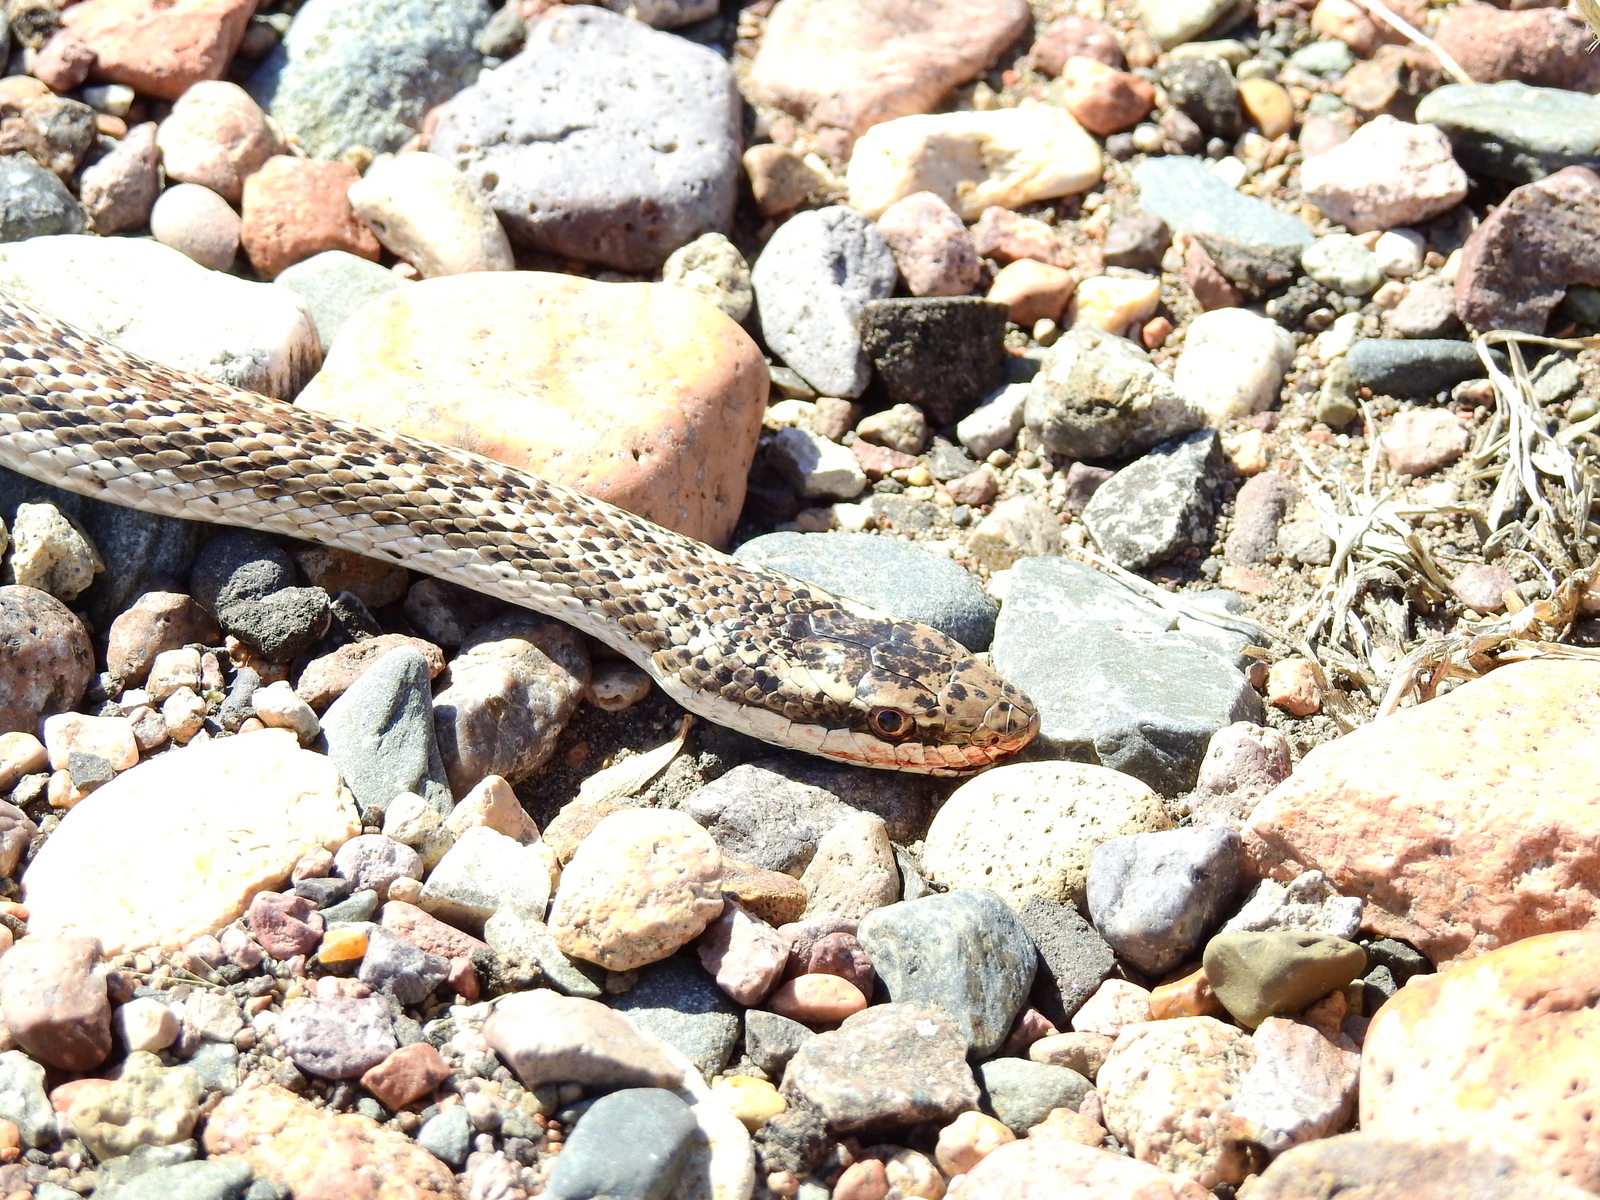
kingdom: Animalia
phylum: Chordata
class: Squamata
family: Colubridae
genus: Philodryas
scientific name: Philodryas trilineata
